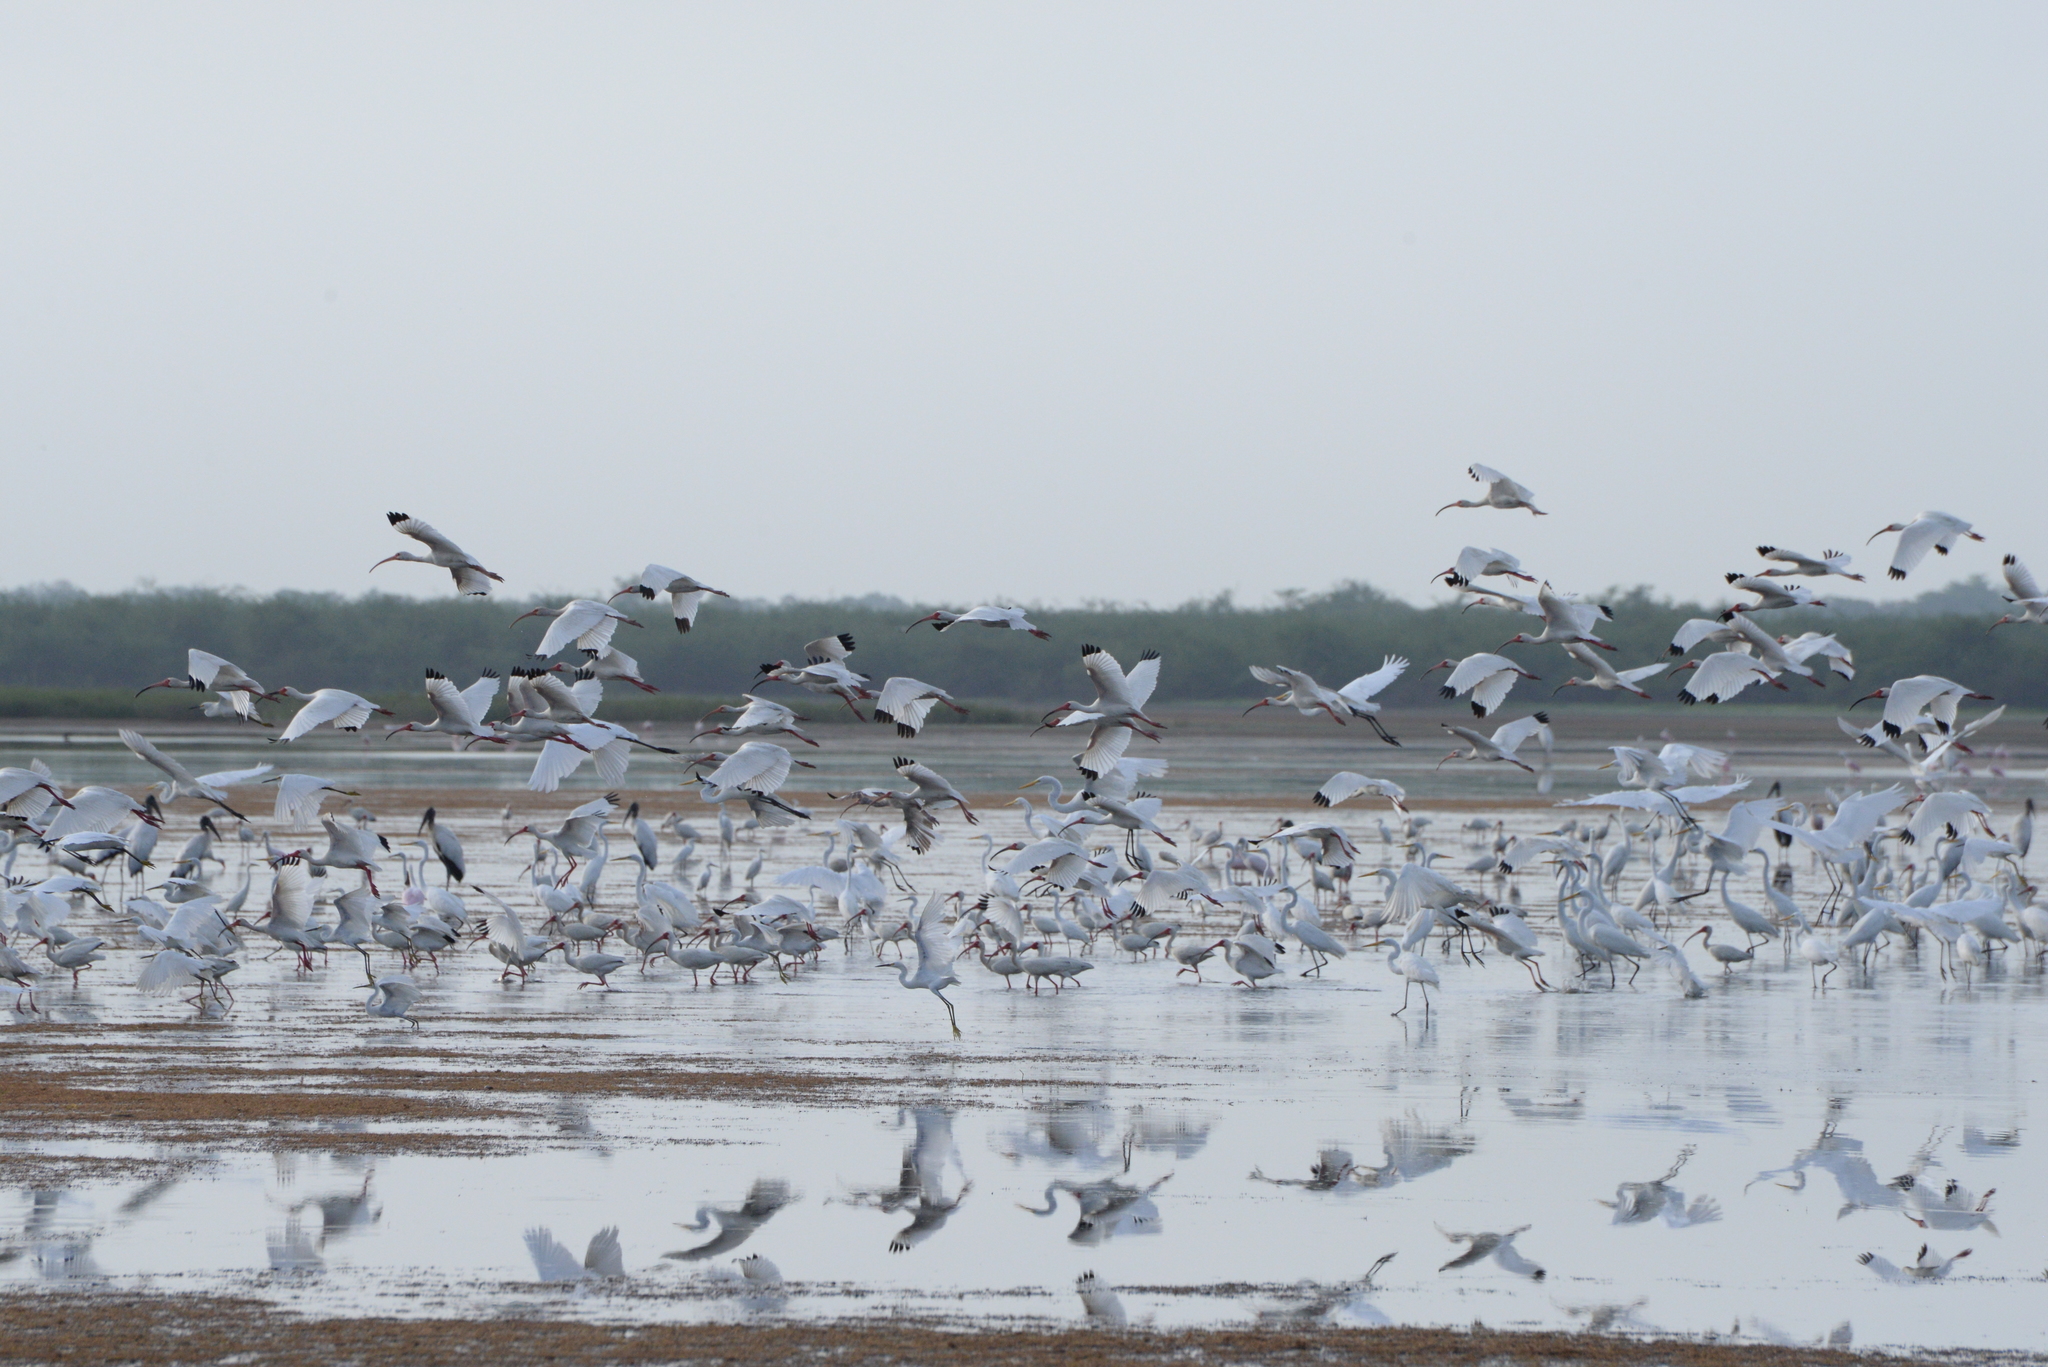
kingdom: Animalia
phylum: Chordata
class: Aves
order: Pelecaniformes
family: Threskiornithidae
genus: Eudocimus
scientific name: Eudocimus albus
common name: White ibis
